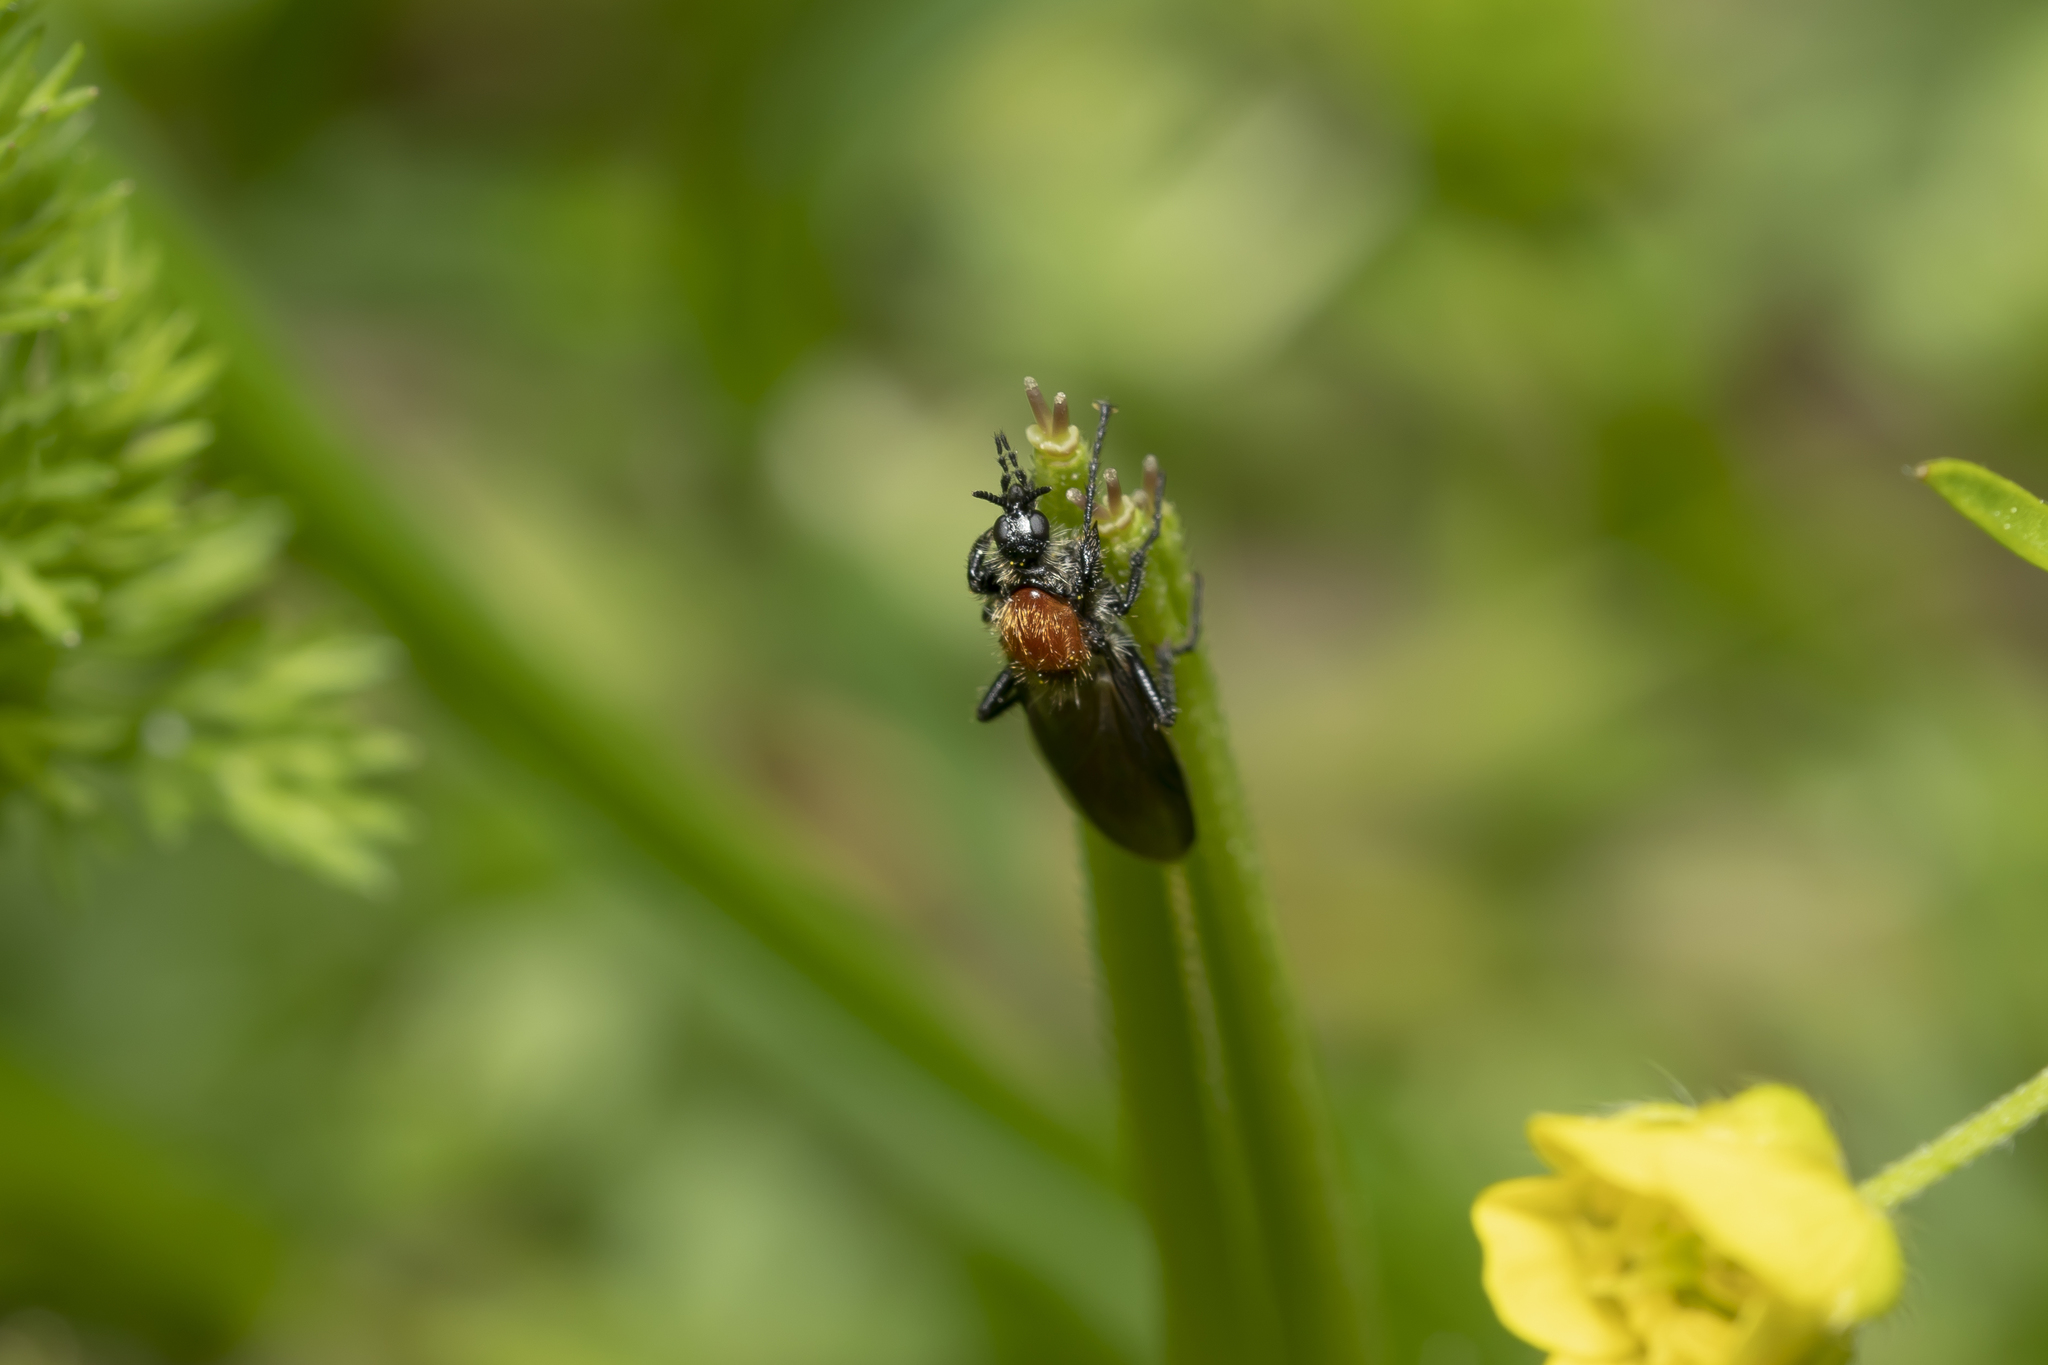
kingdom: Animalia
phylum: Arthropoda
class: Insecta
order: Diptera
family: Bibionidae
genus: Bibio
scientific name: Bibio hortulanus
